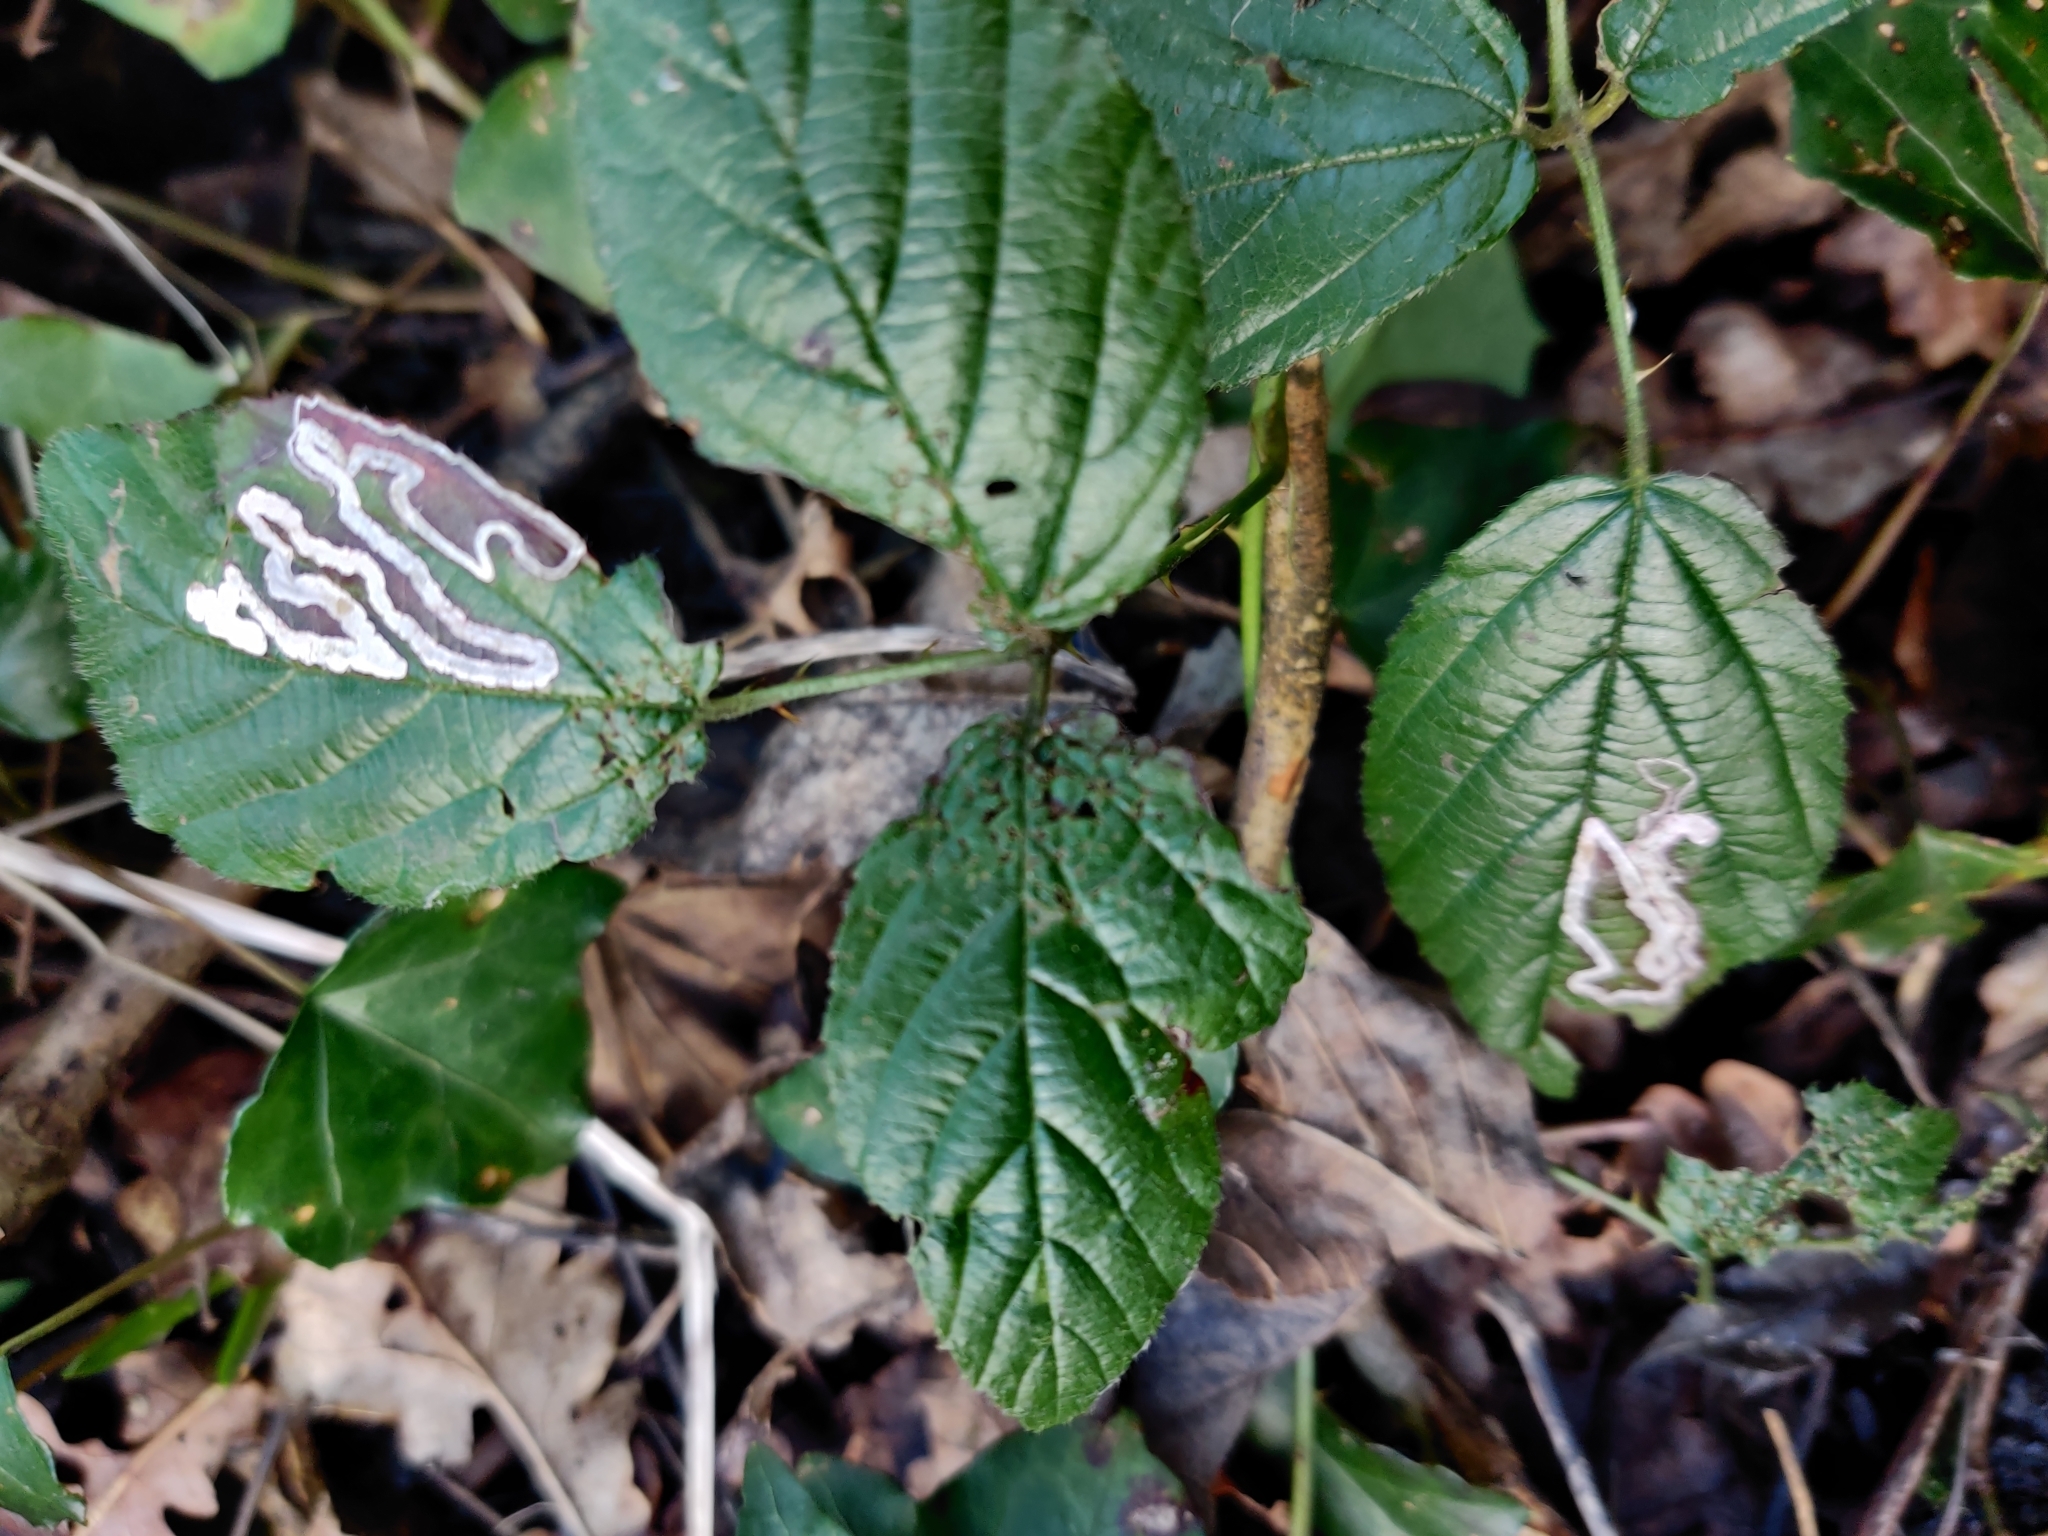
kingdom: Animalia
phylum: Arthropoda
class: Insecta
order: Lepidoptera
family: Nepticulidae
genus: Stigmella
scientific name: Stigmella aurella
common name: Golden pigmy
